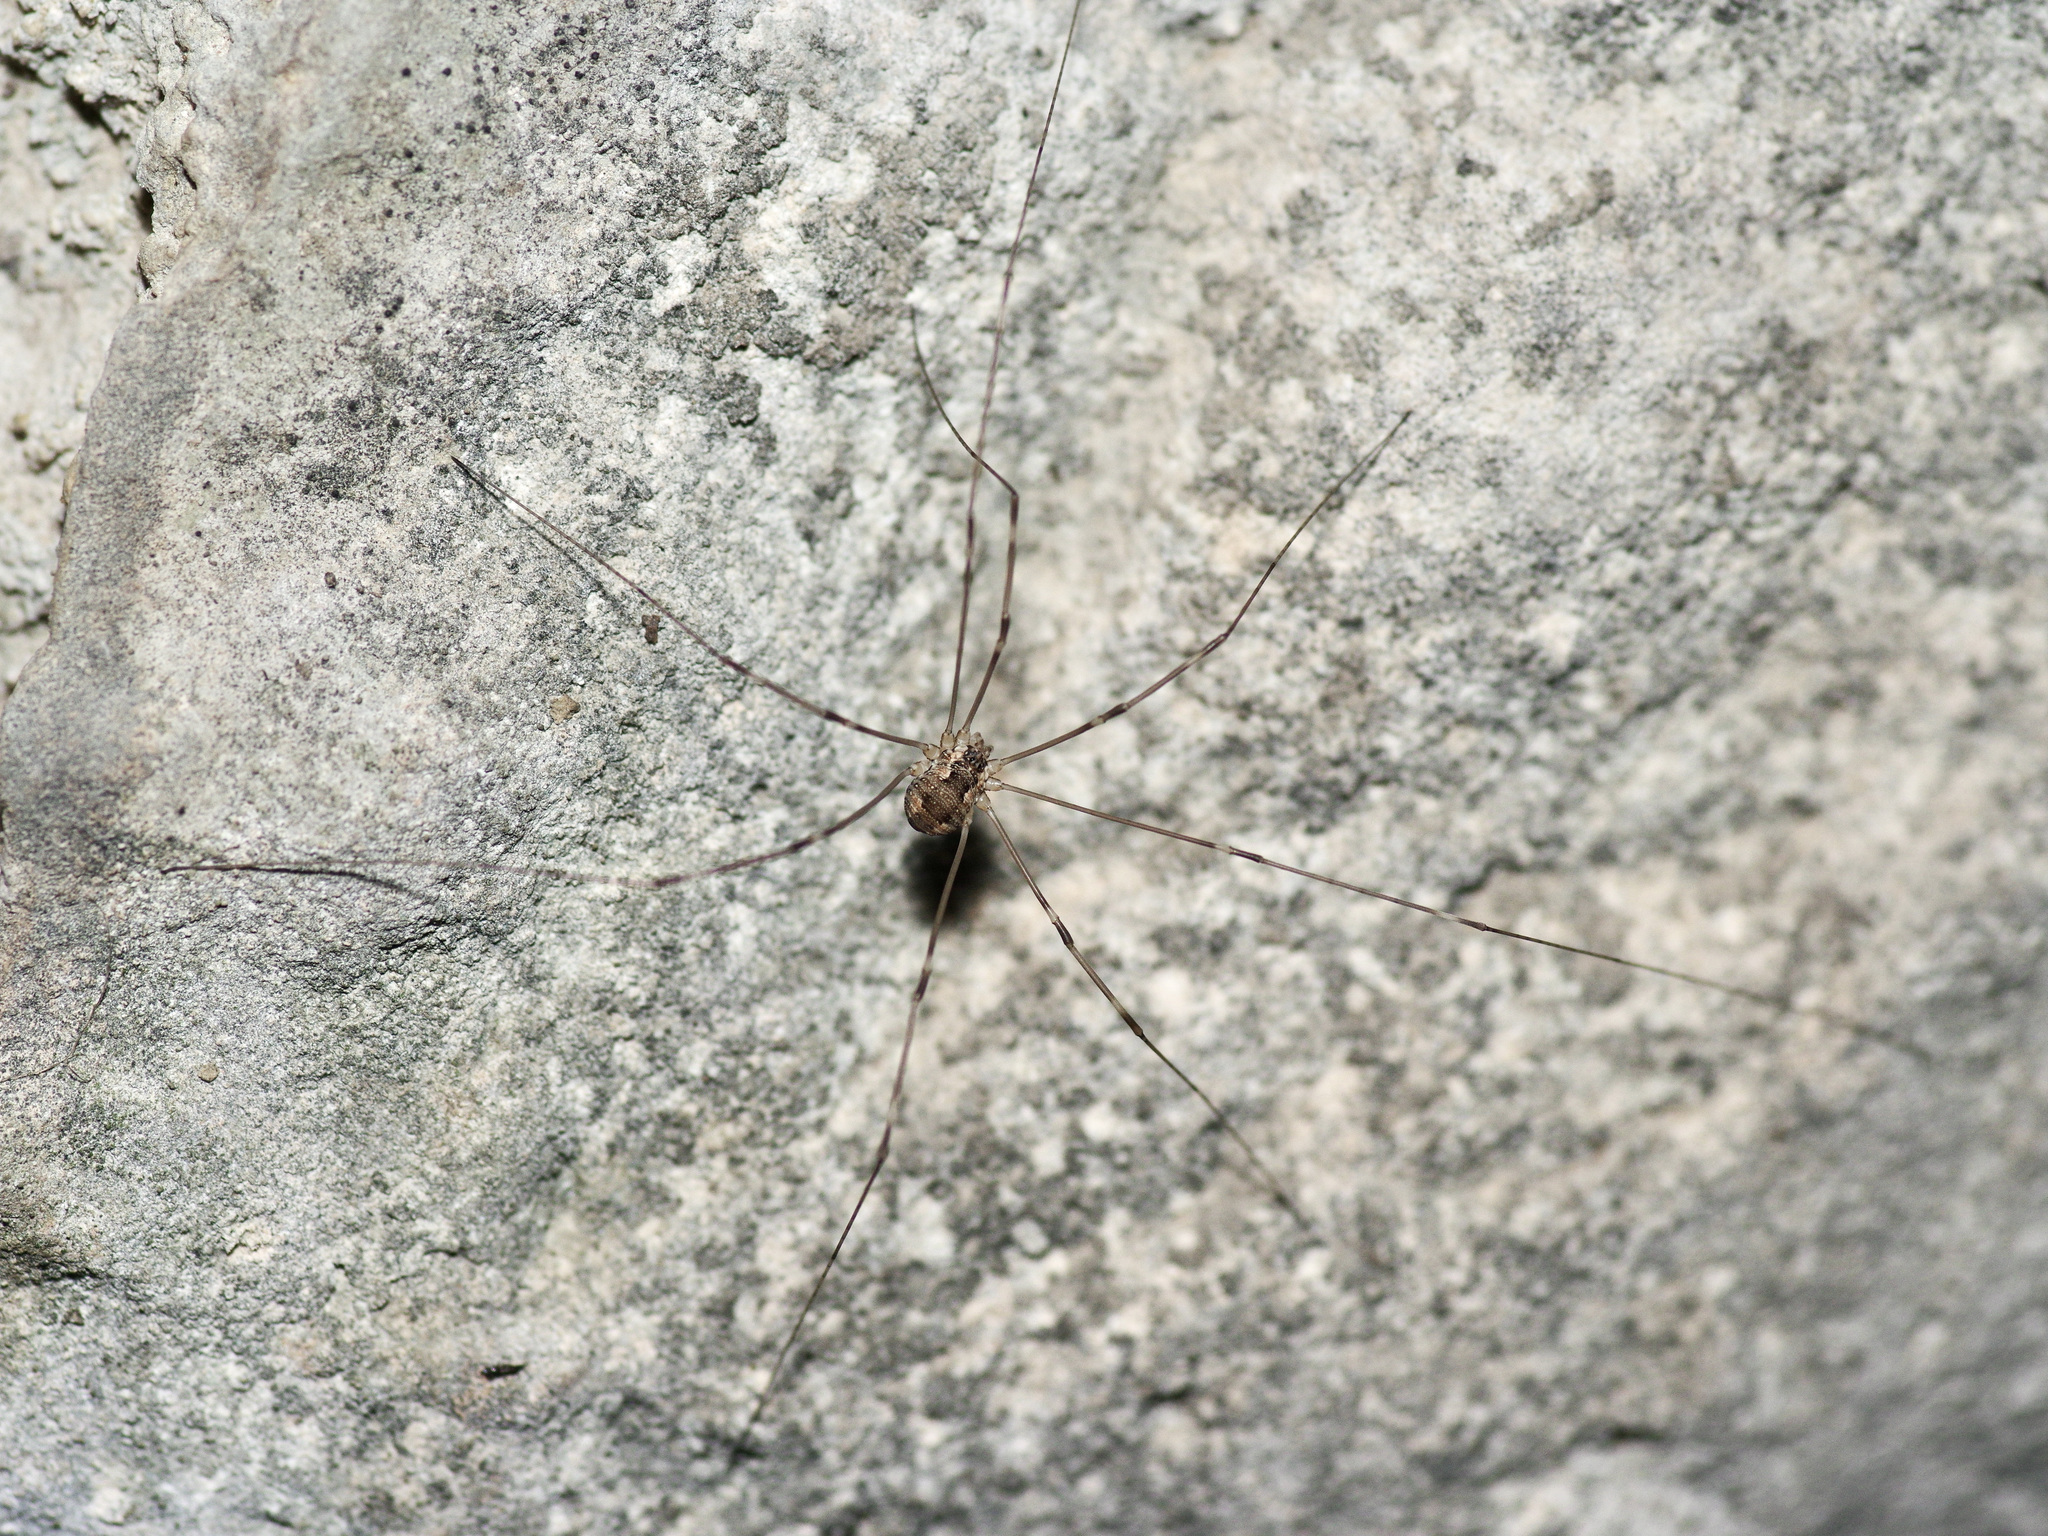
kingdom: Animalia
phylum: Arthropoda
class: Arachnida
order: Opiliones
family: Sclerosomatidae
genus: Leiobunum
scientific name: Leiobunum townsendi
